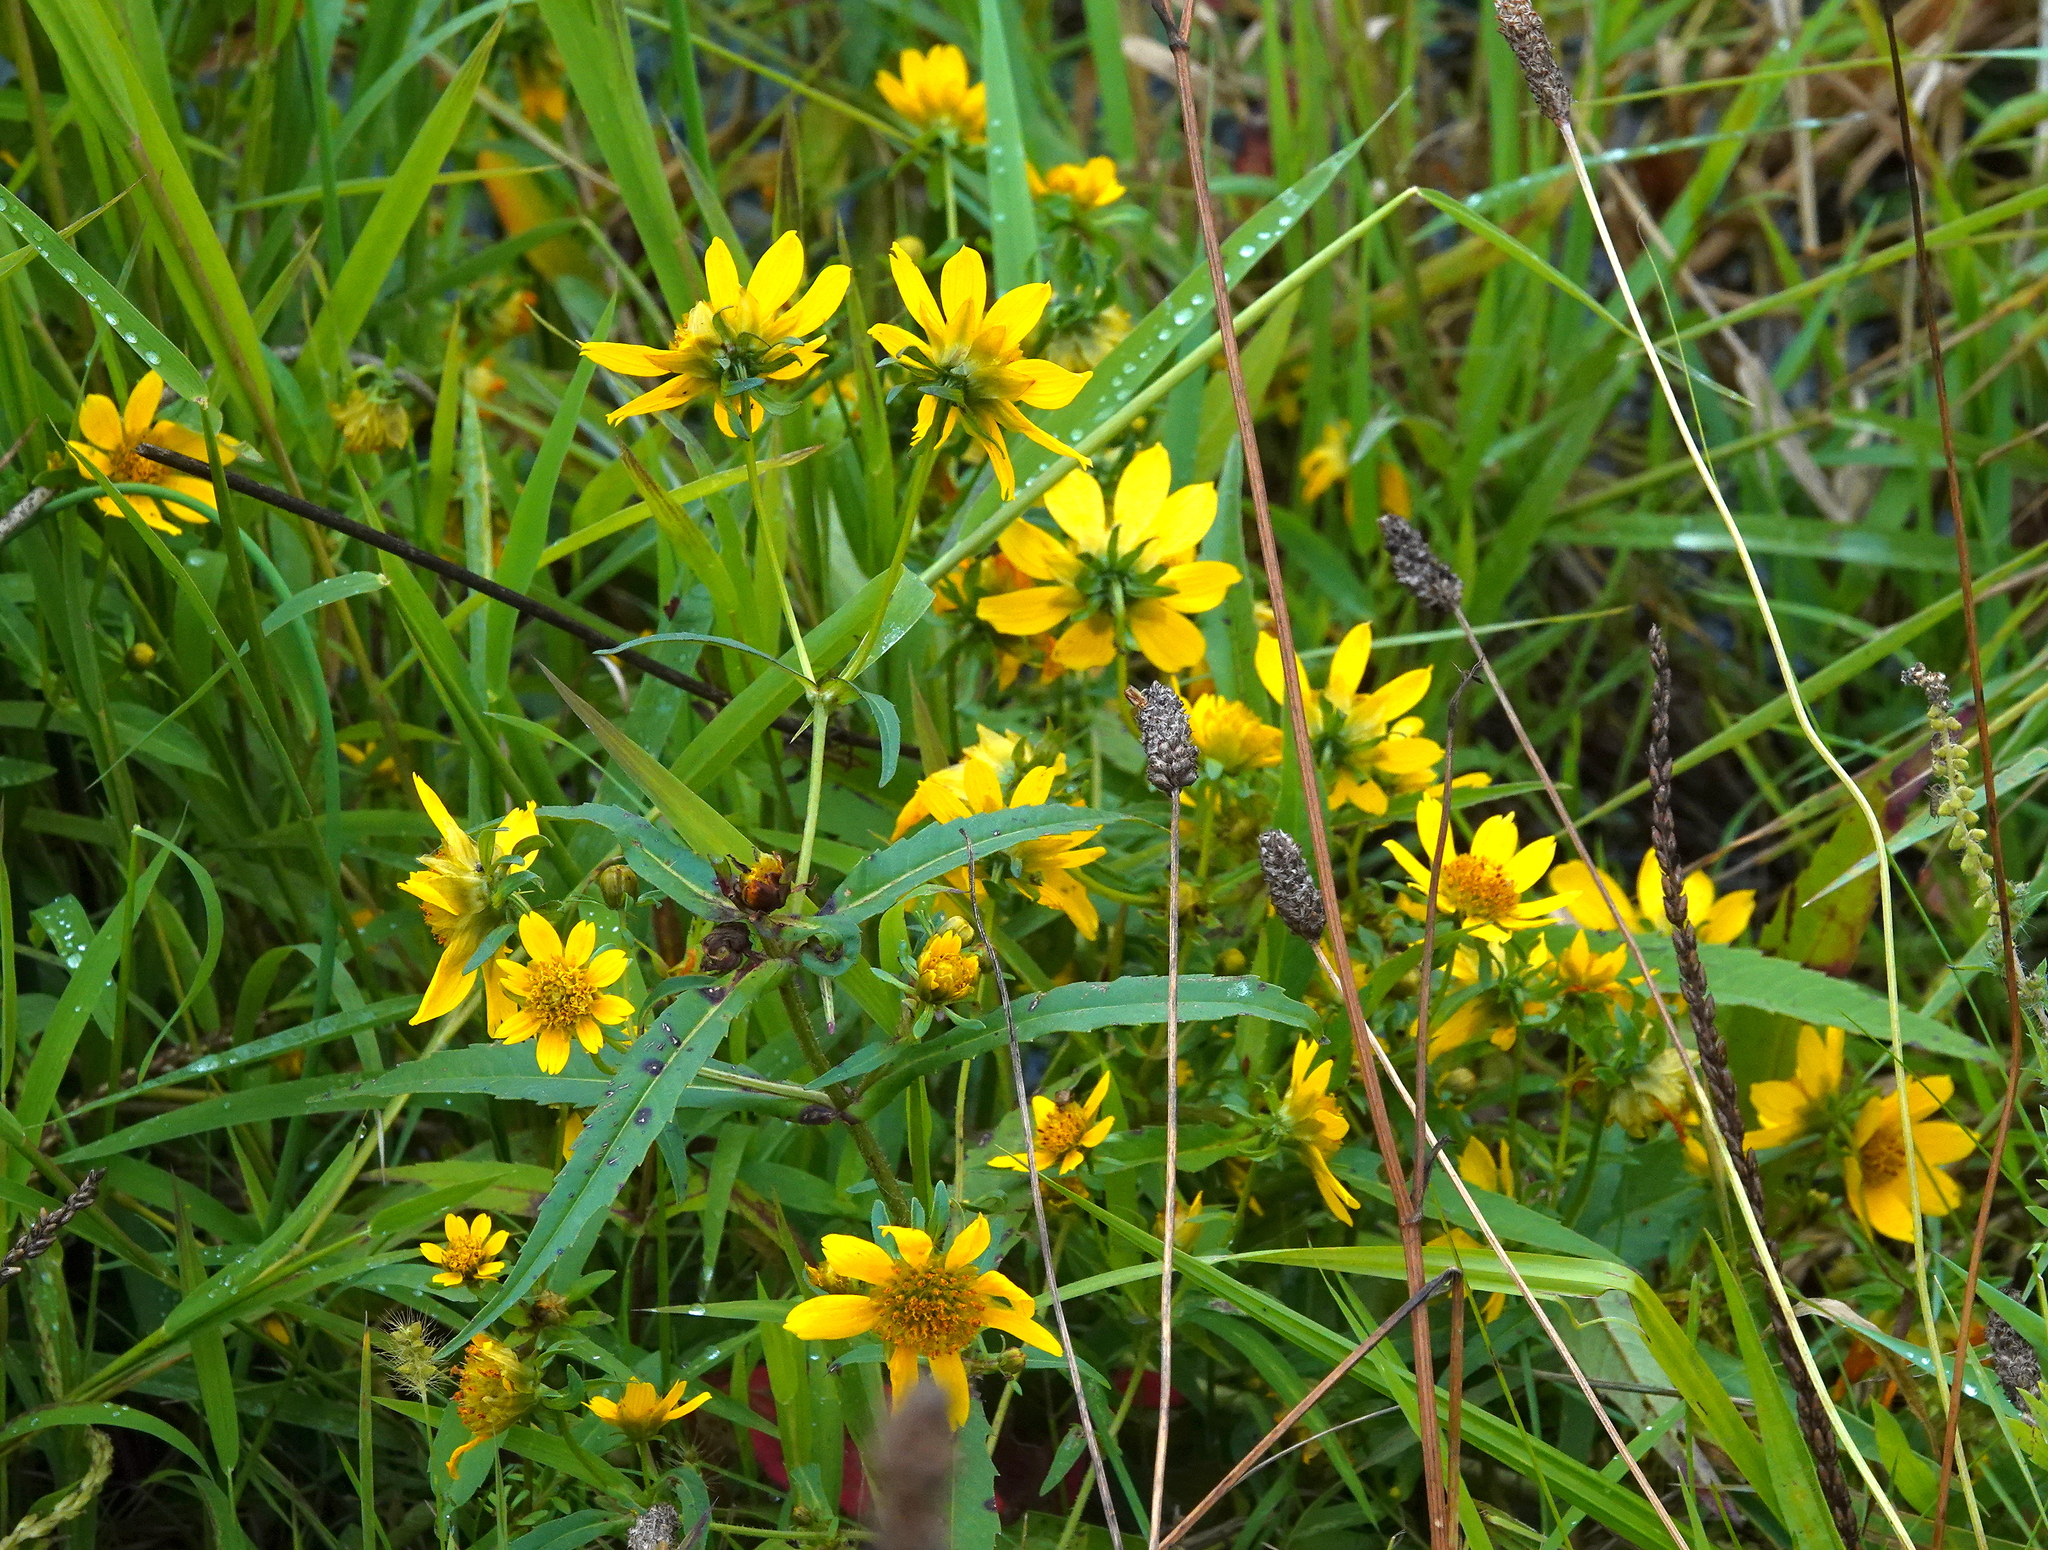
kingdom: Plantae
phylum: Tracheophyta
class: Magnoliopsida
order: Asterales
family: Asteraceae
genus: Bidens
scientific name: Bidens cernua
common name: Nodding bur-marigold
